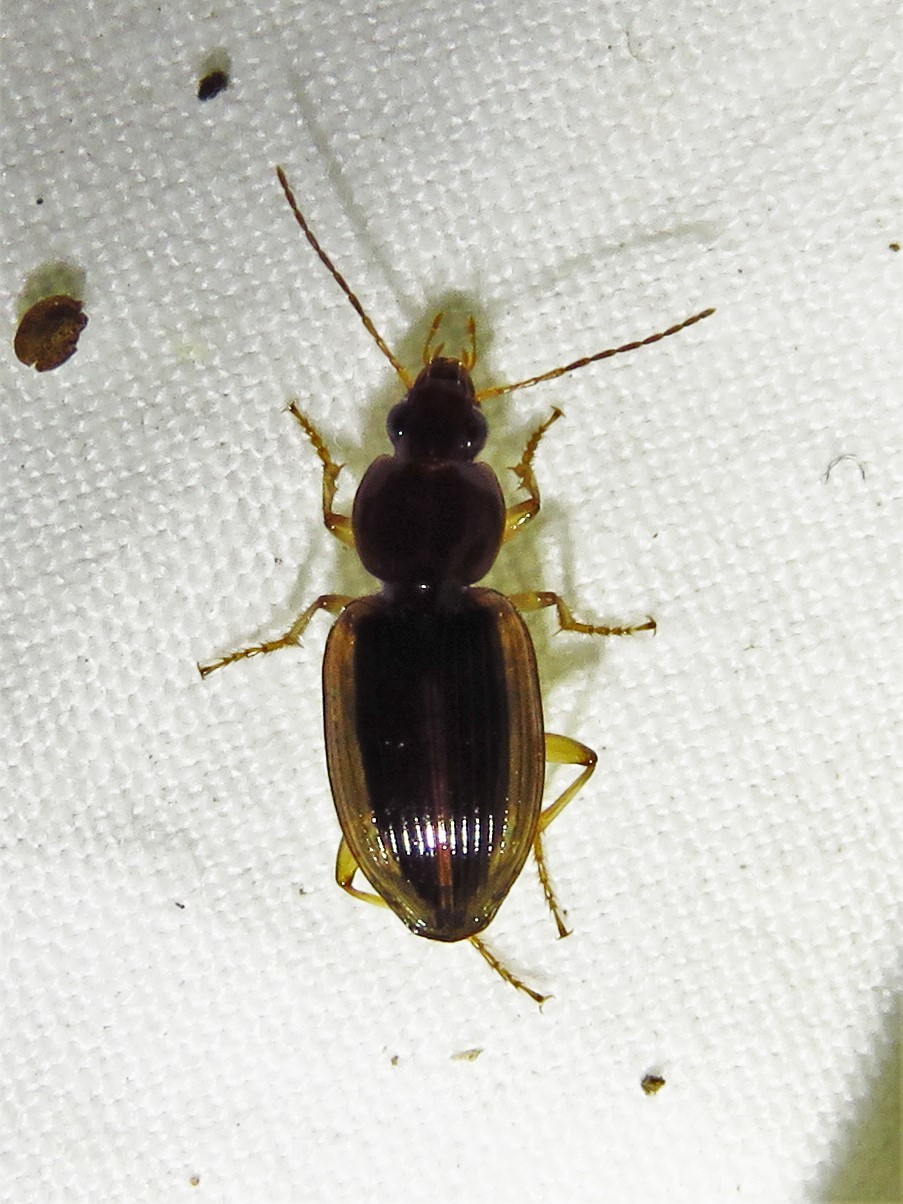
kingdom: Animalia
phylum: Arthropoda
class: Insecta
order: Coleoptera
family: Carabidae
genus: Agonum
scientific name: Agonum pallipes
